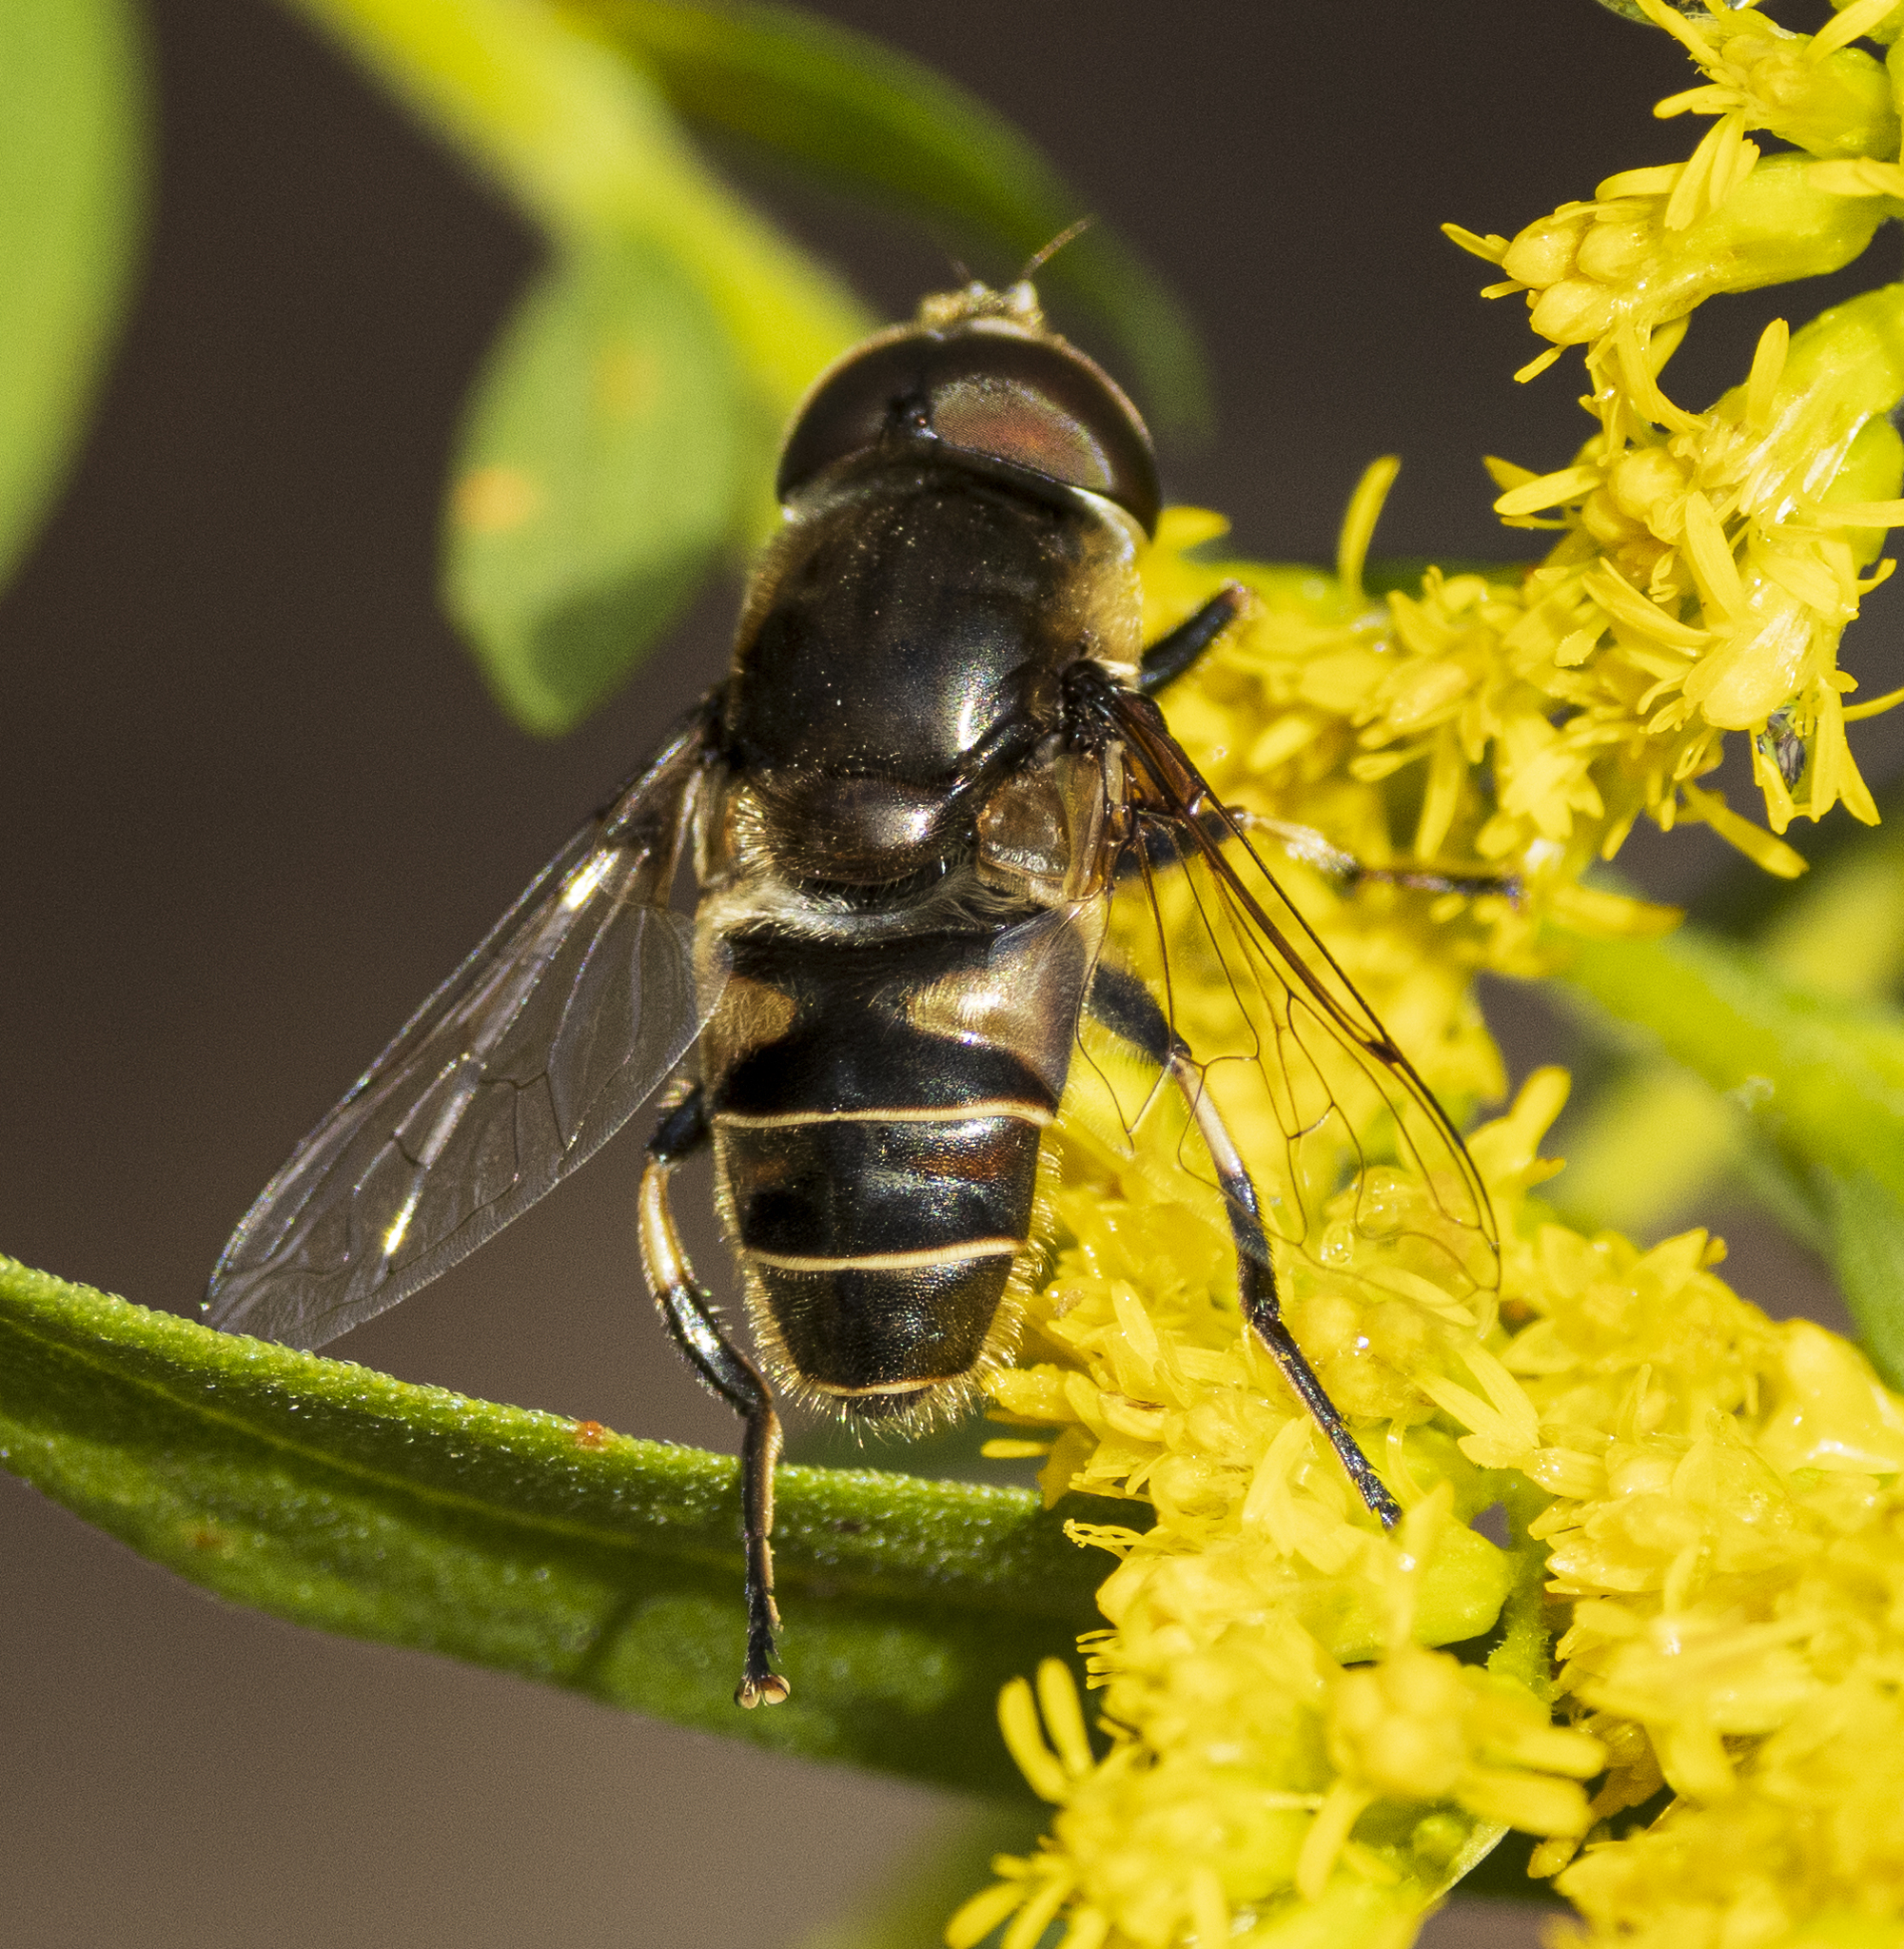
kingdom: Animalia
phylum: Arthropoda
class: Insecta
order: Diptera
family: Syrphidae
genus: Eristalis
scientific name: Eristalis dimidiata
